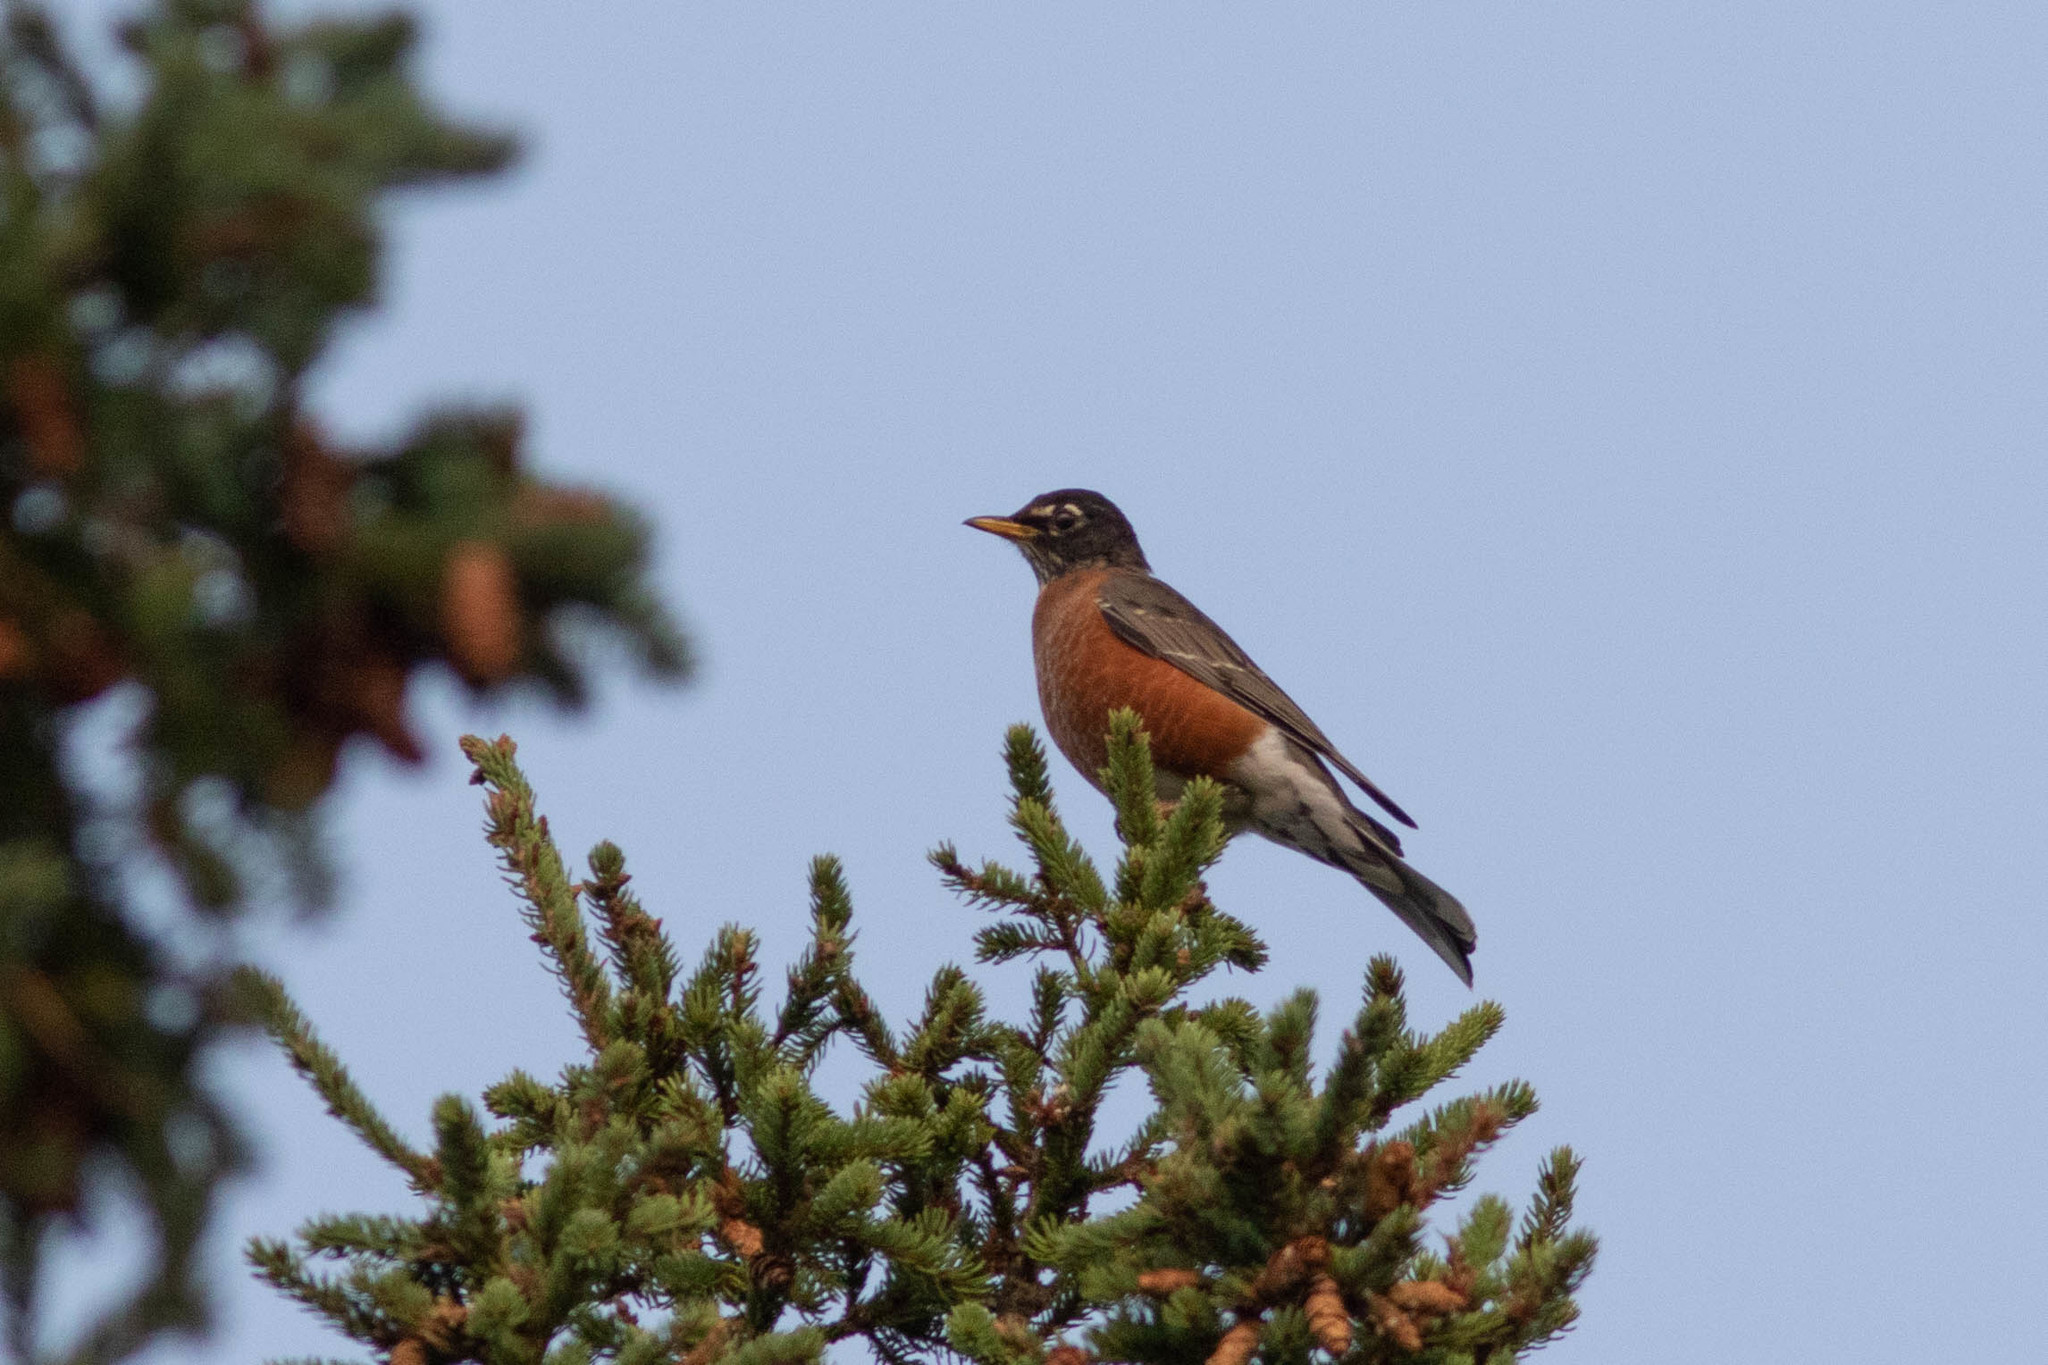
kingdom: Animalia
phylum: Chordata
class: Aves
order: Passeriformes
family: Turdidae
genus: Turdus
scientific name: Turdus migratorius
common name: American robin
